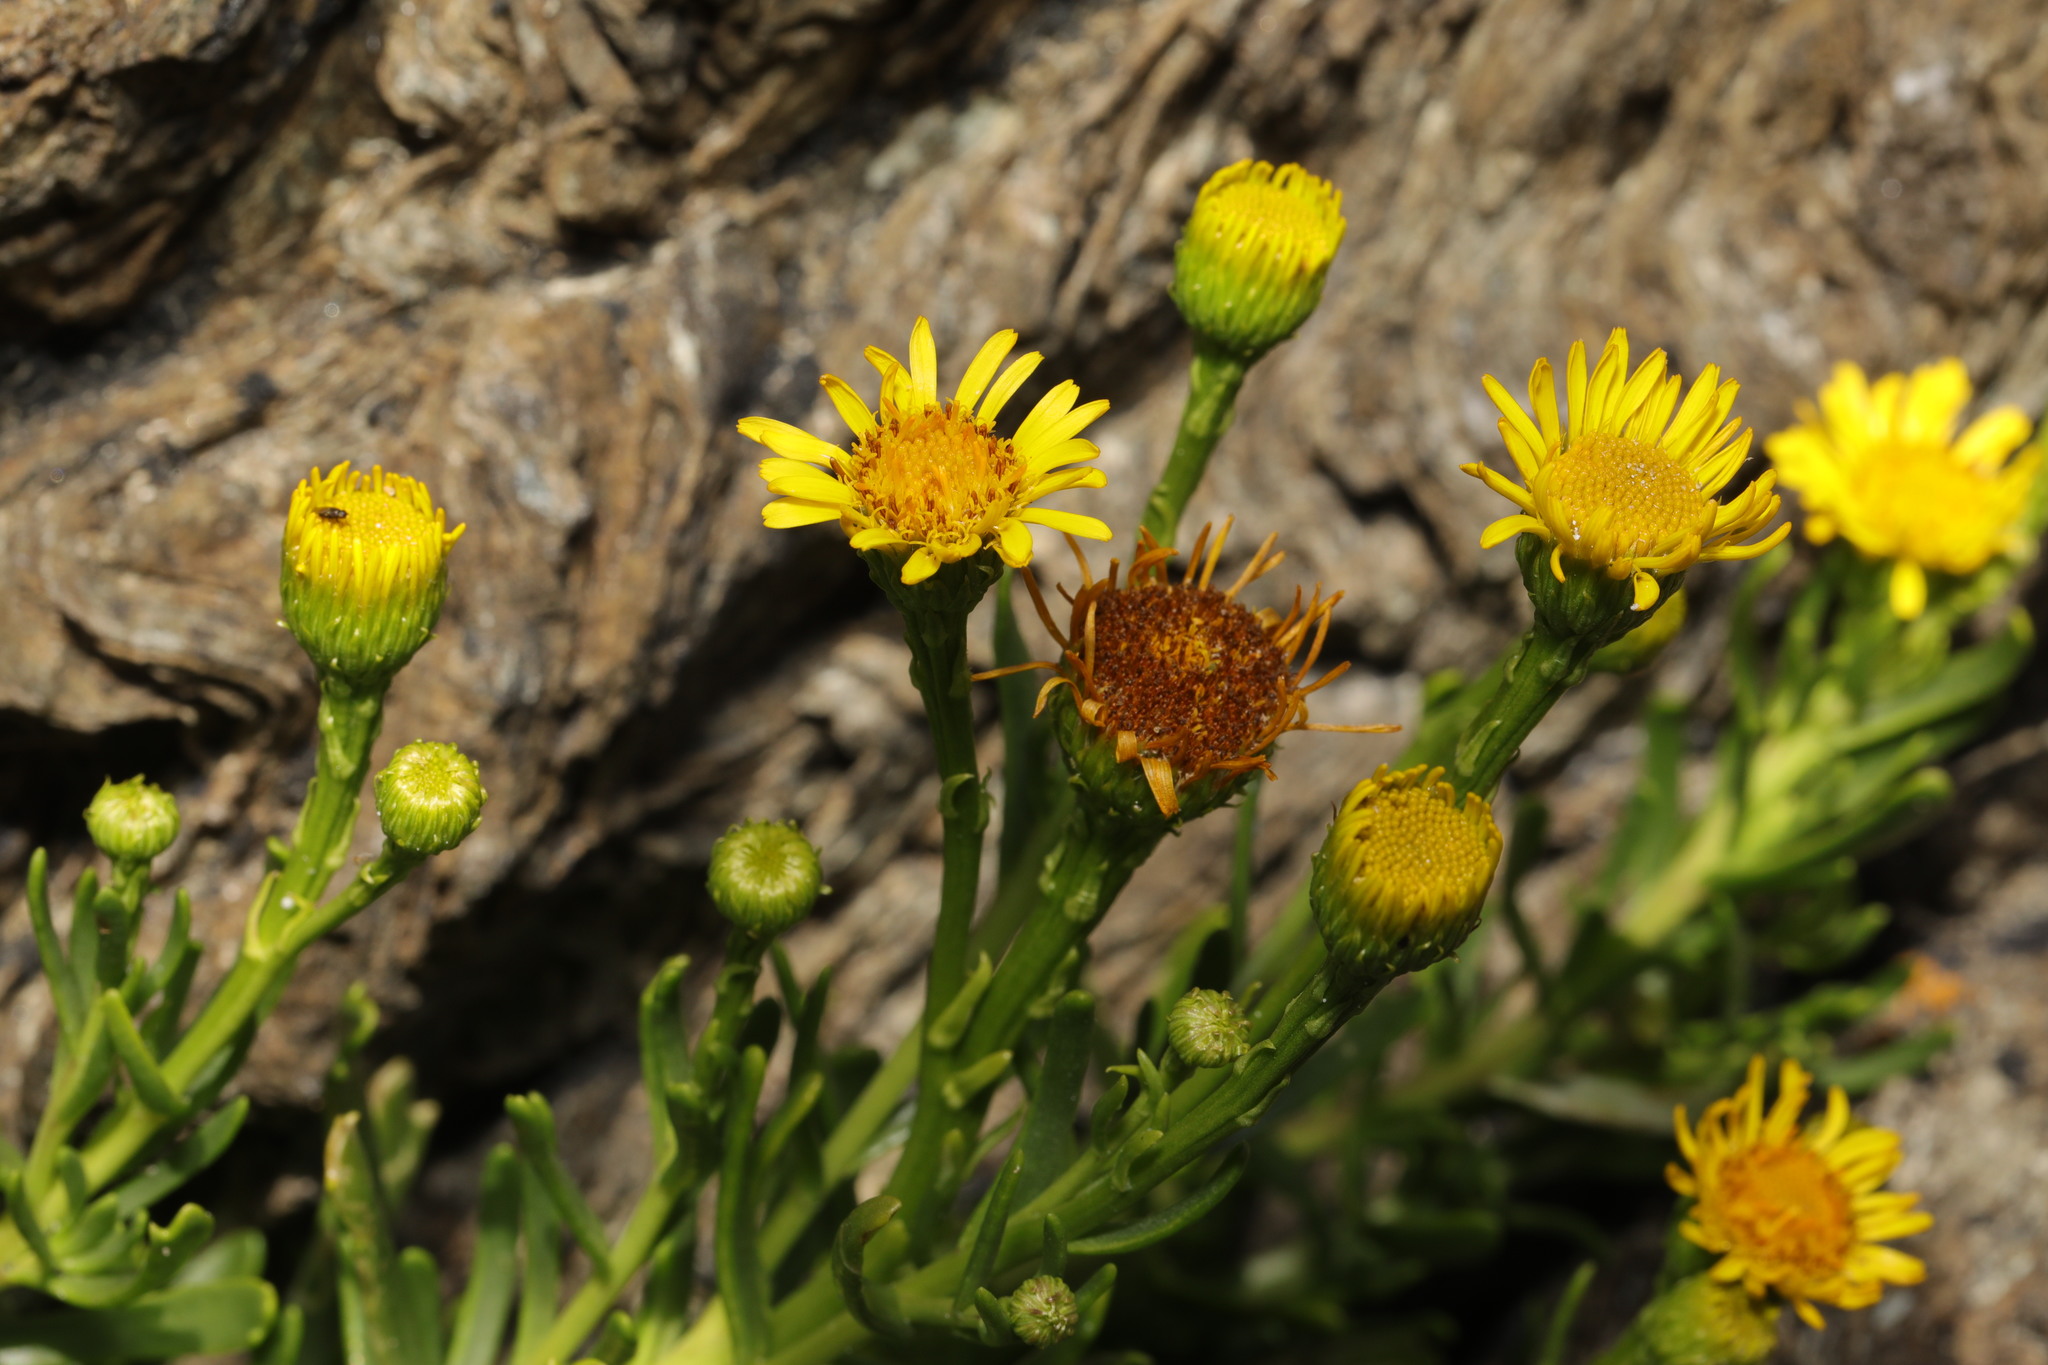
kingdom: Plantae
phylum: Tracheophyta
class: Magnoliopsida
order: Asterales
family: Asteraceae
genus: Limbarda
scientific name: Limbarda crithmoides
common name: Golden samphire
